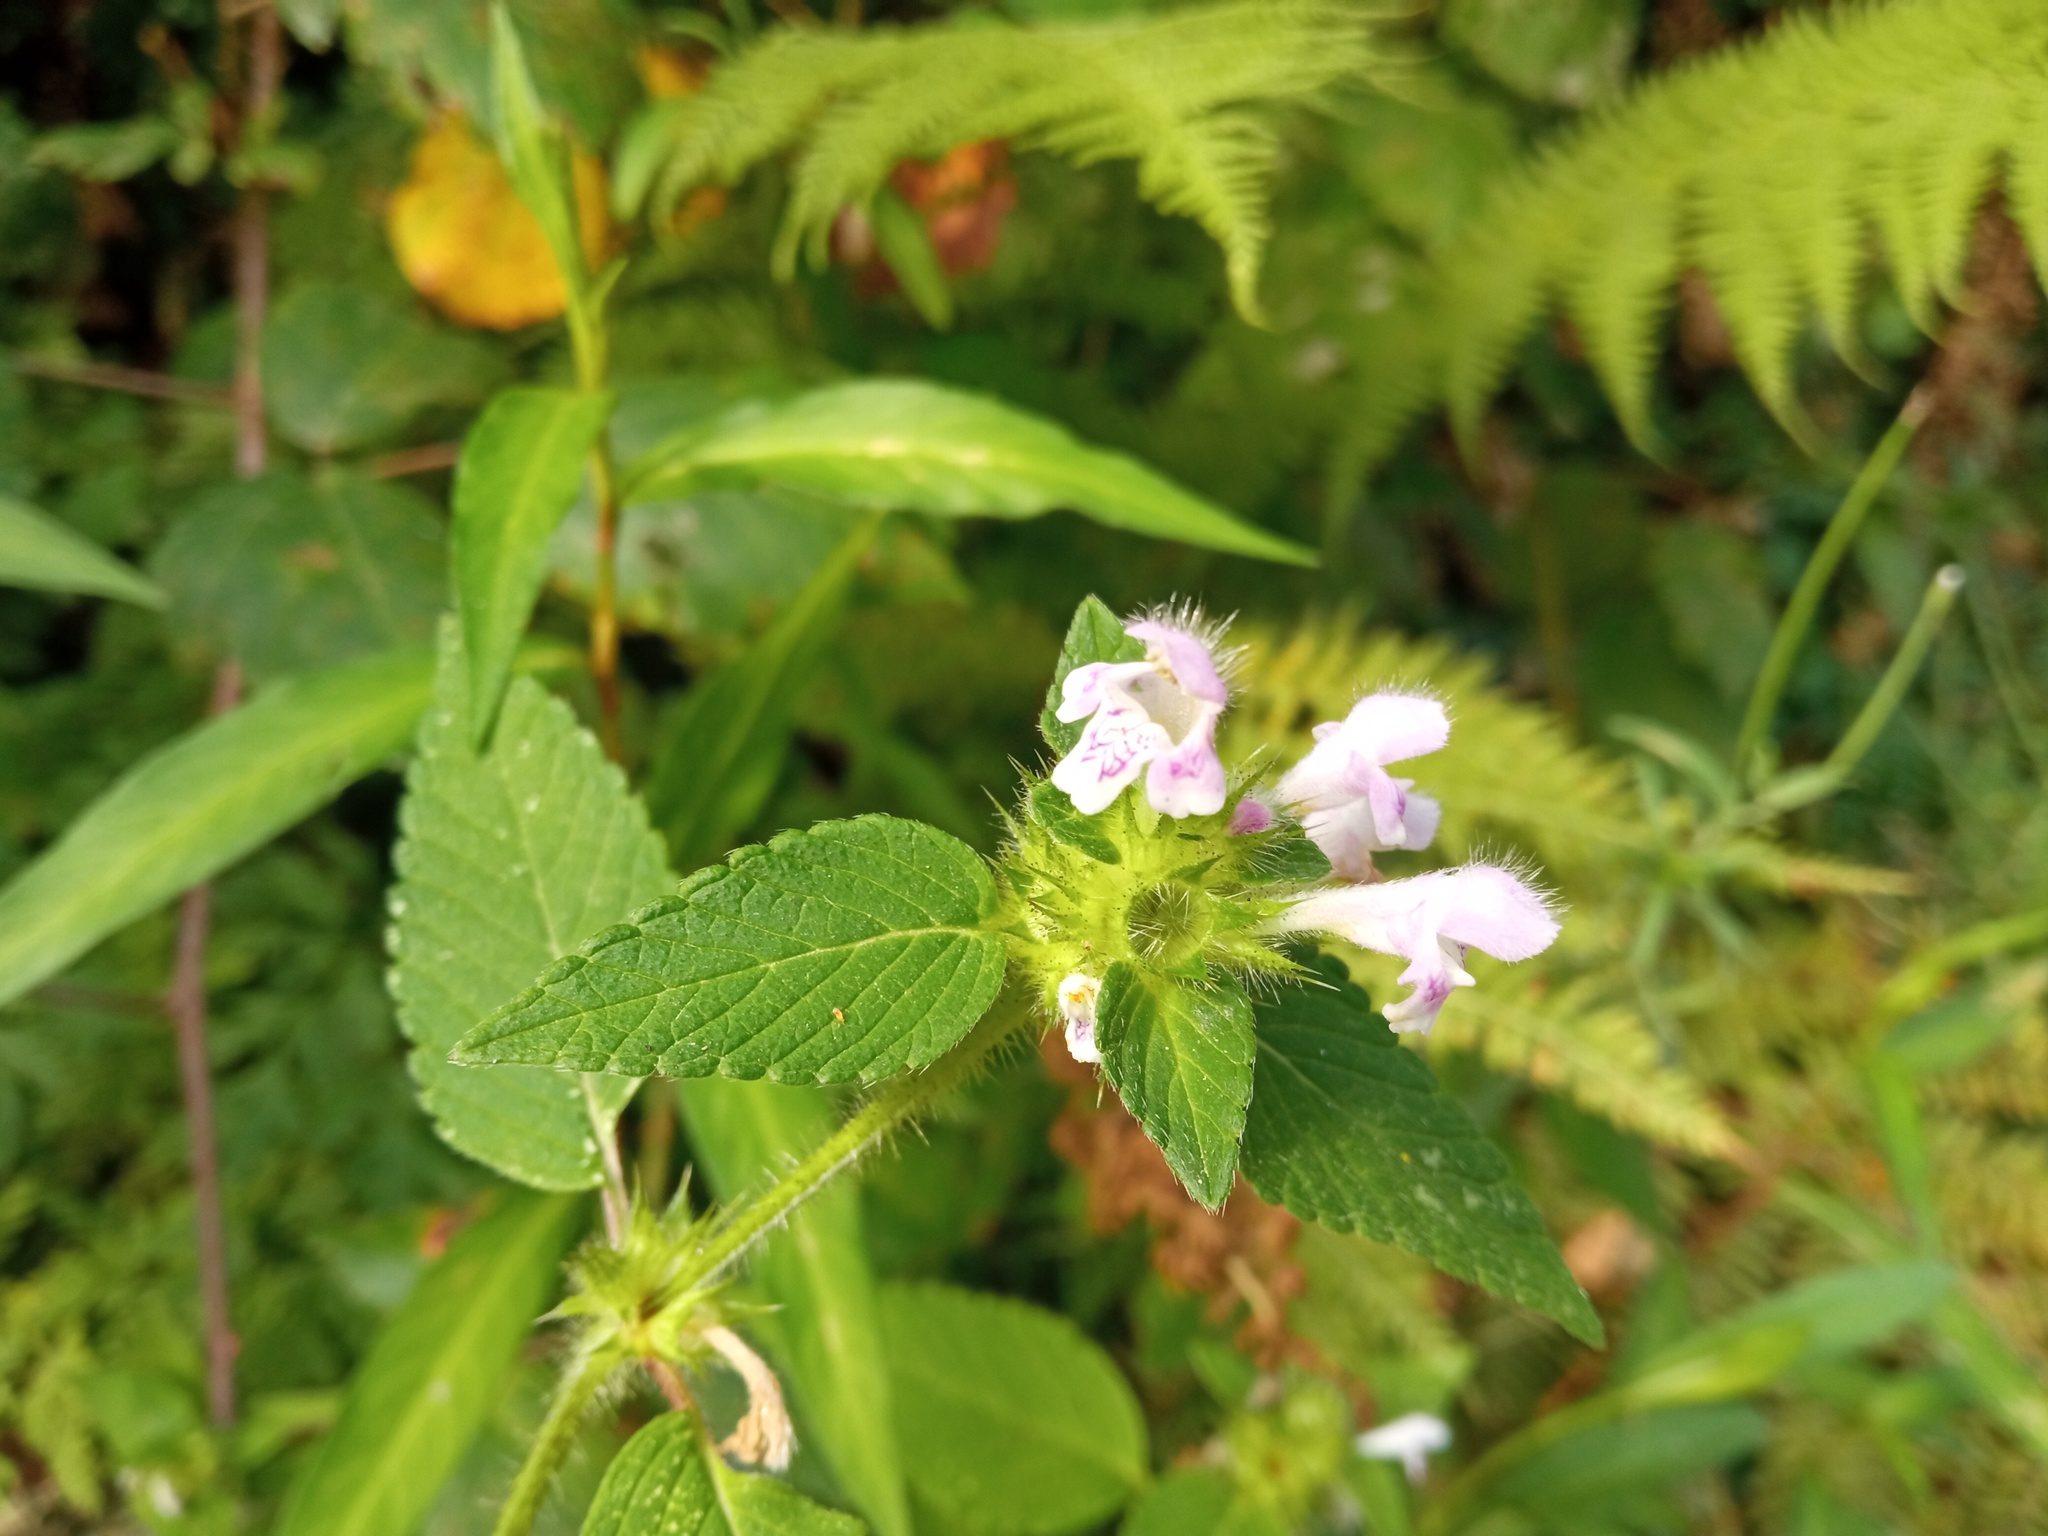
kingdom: Plantae
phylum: Tracheophyta
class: Magnoliopsida
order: Lamiales
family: Lamiaceae
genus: Galeopsis
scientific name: Galeopsis tetrahit
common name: Common hemp-nettle
